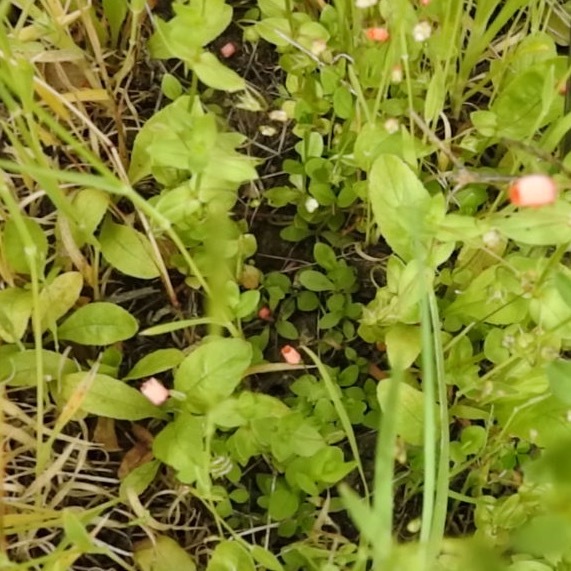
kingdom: Plantae
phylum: Tracheophyta
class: Magnoliopsida
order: Ericales
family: Primulaceae
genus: Lysimachia
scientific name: Lysimachia arvensis
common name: Scarlet pimpernel
